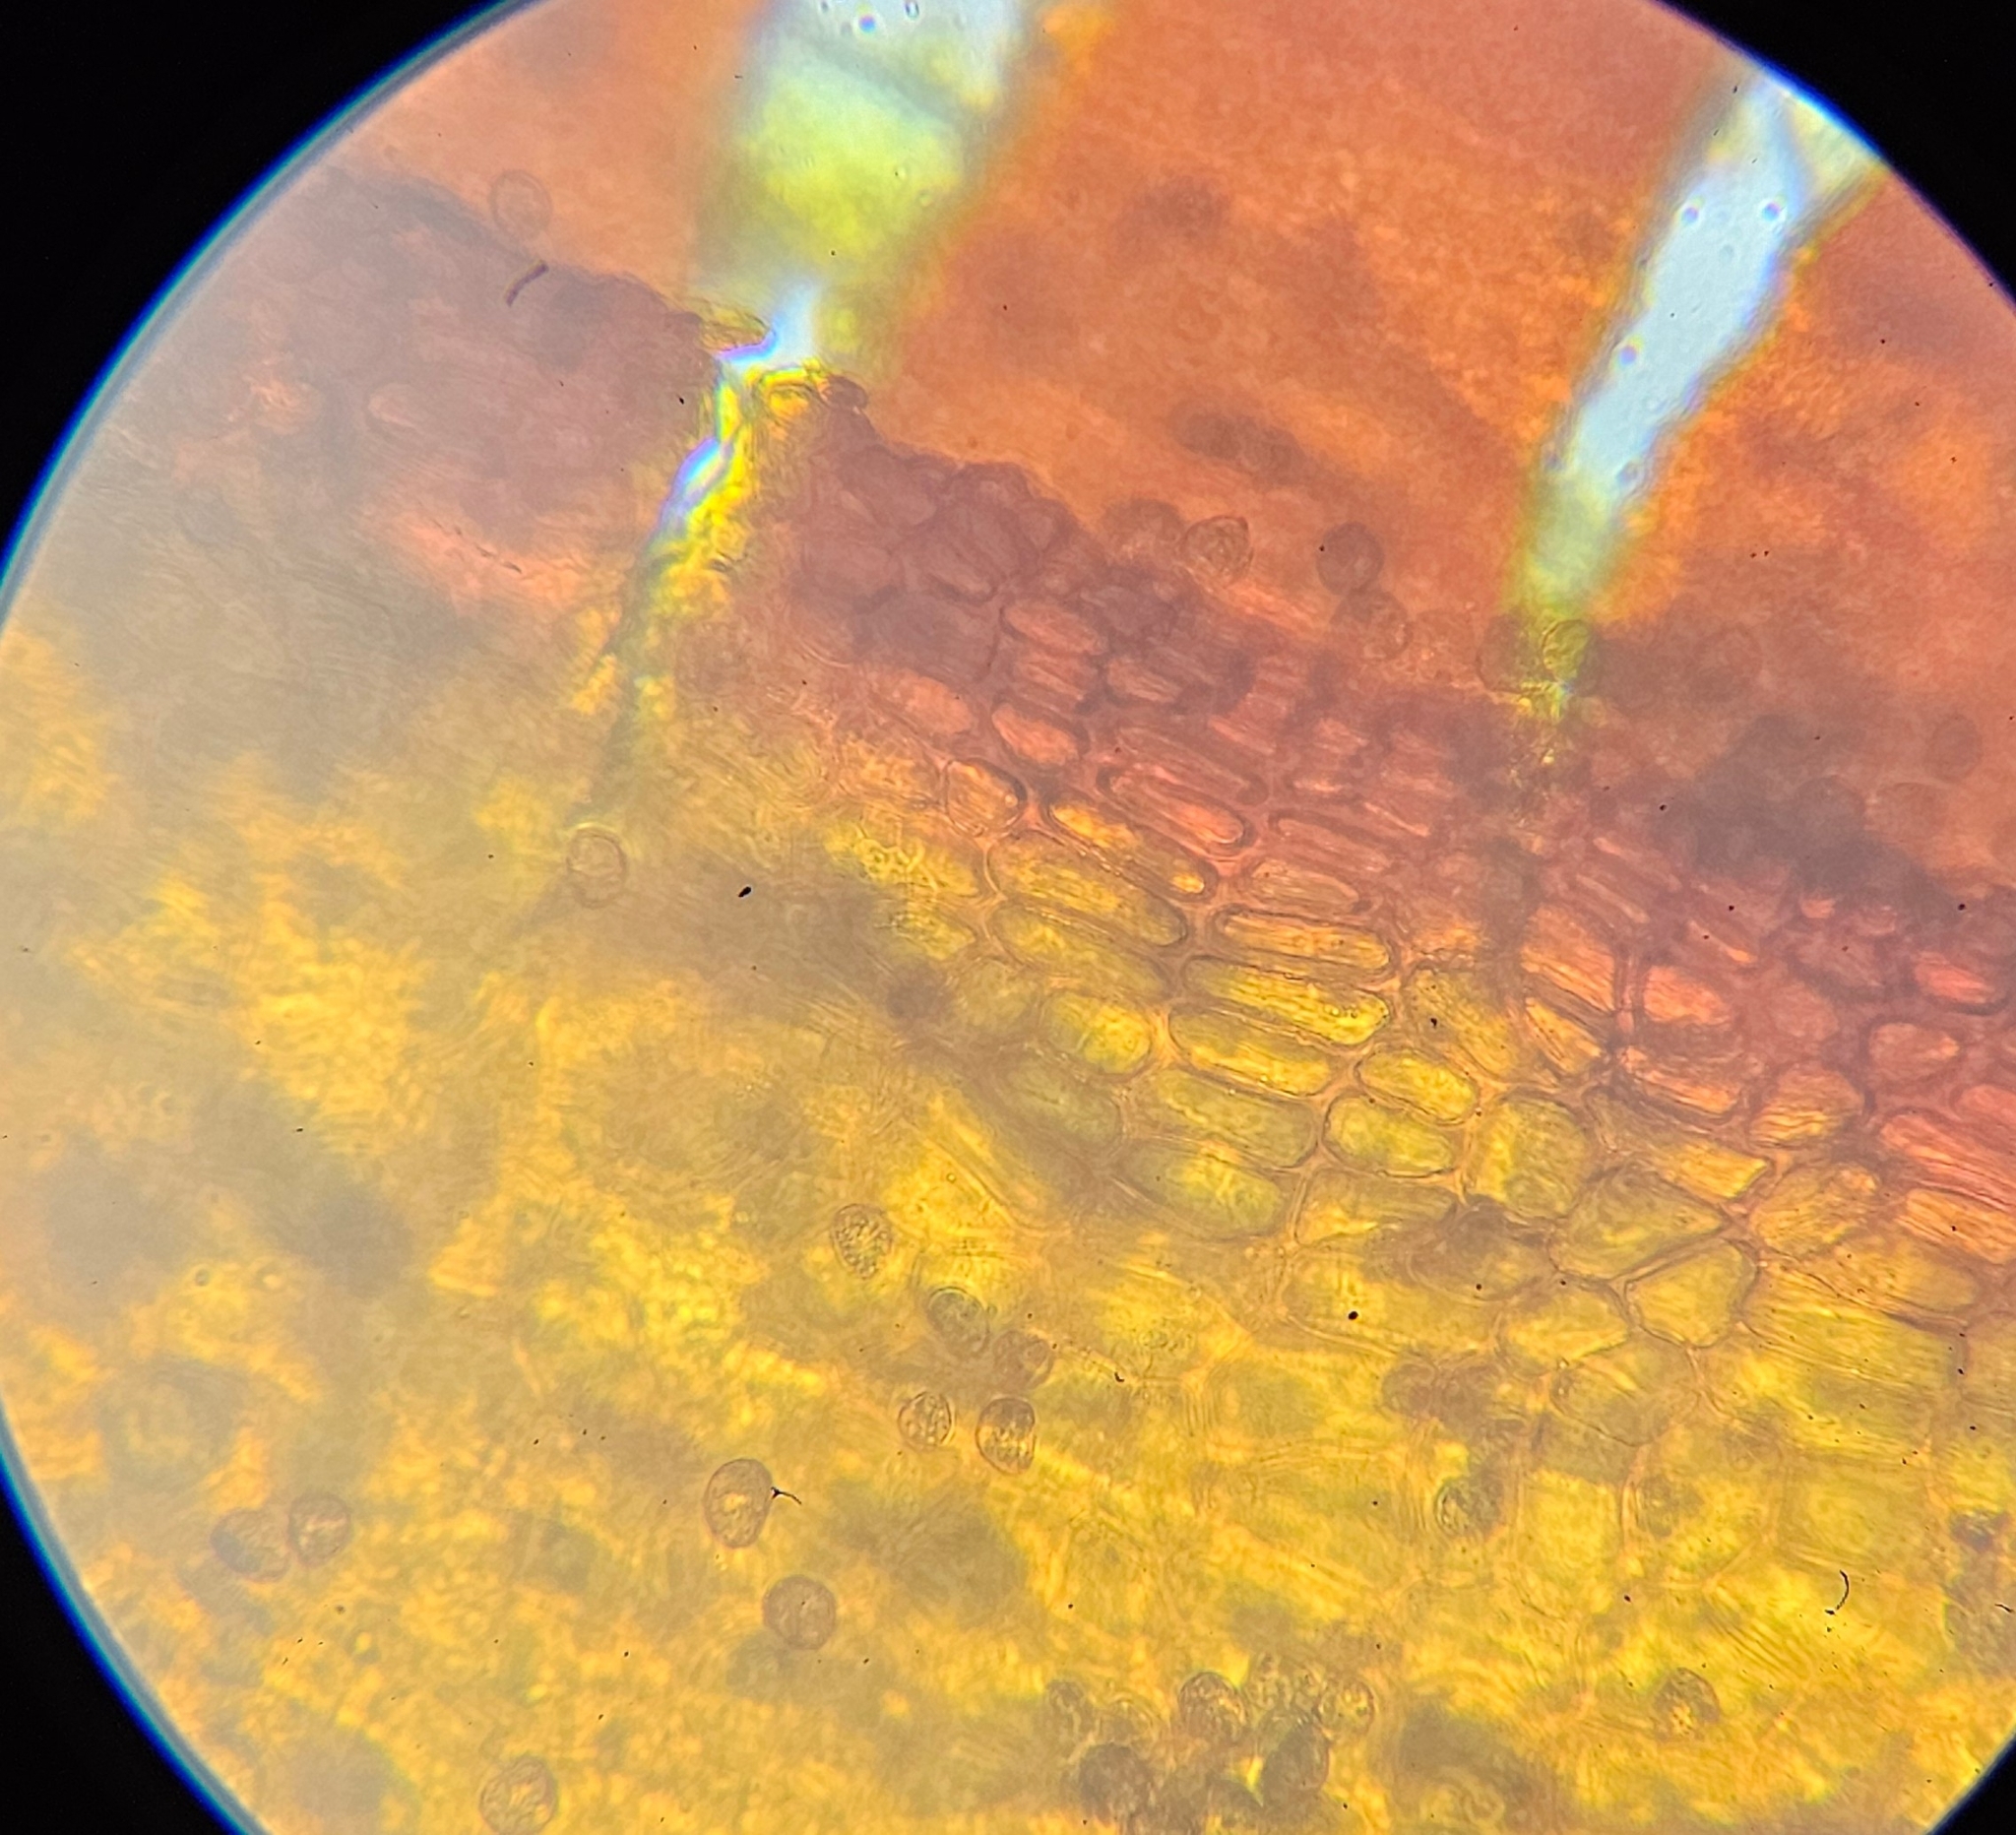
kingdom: Plantae
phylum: Bryophyta
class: Bryopsida
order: Grimmiales
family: Grimmiaceae
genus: Schistidium
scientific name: Schistidium apocarpum
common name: Radiate bloom moss
